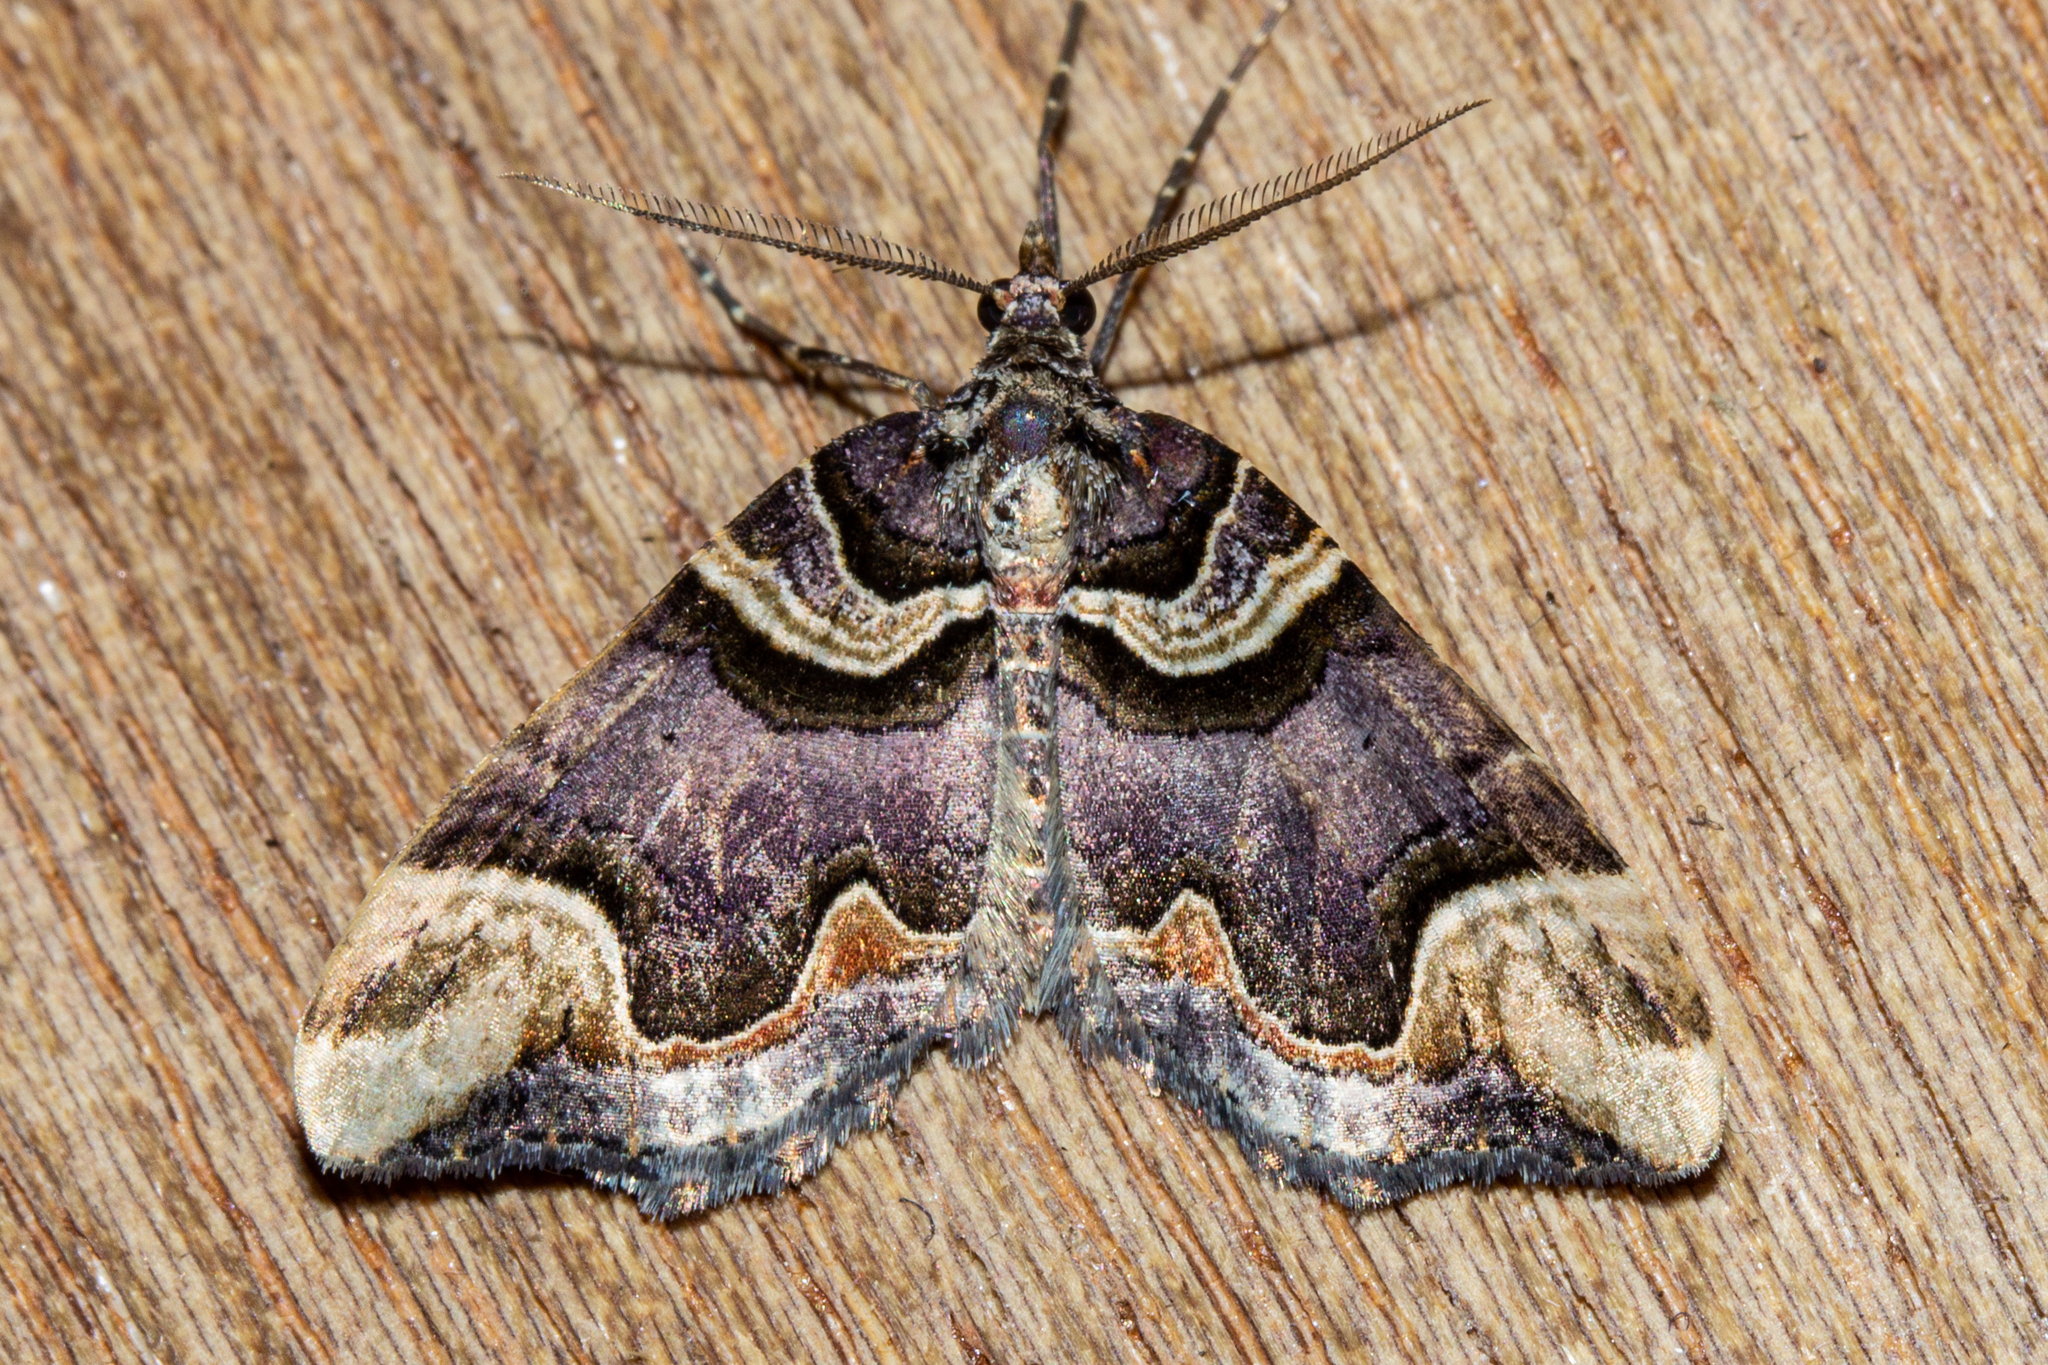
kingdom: Animalia
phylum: Arthropoda
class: Insecta
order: Lepidoptera
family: Geometridae
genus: Asaphodes
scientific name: Asaphodes chlamydota
